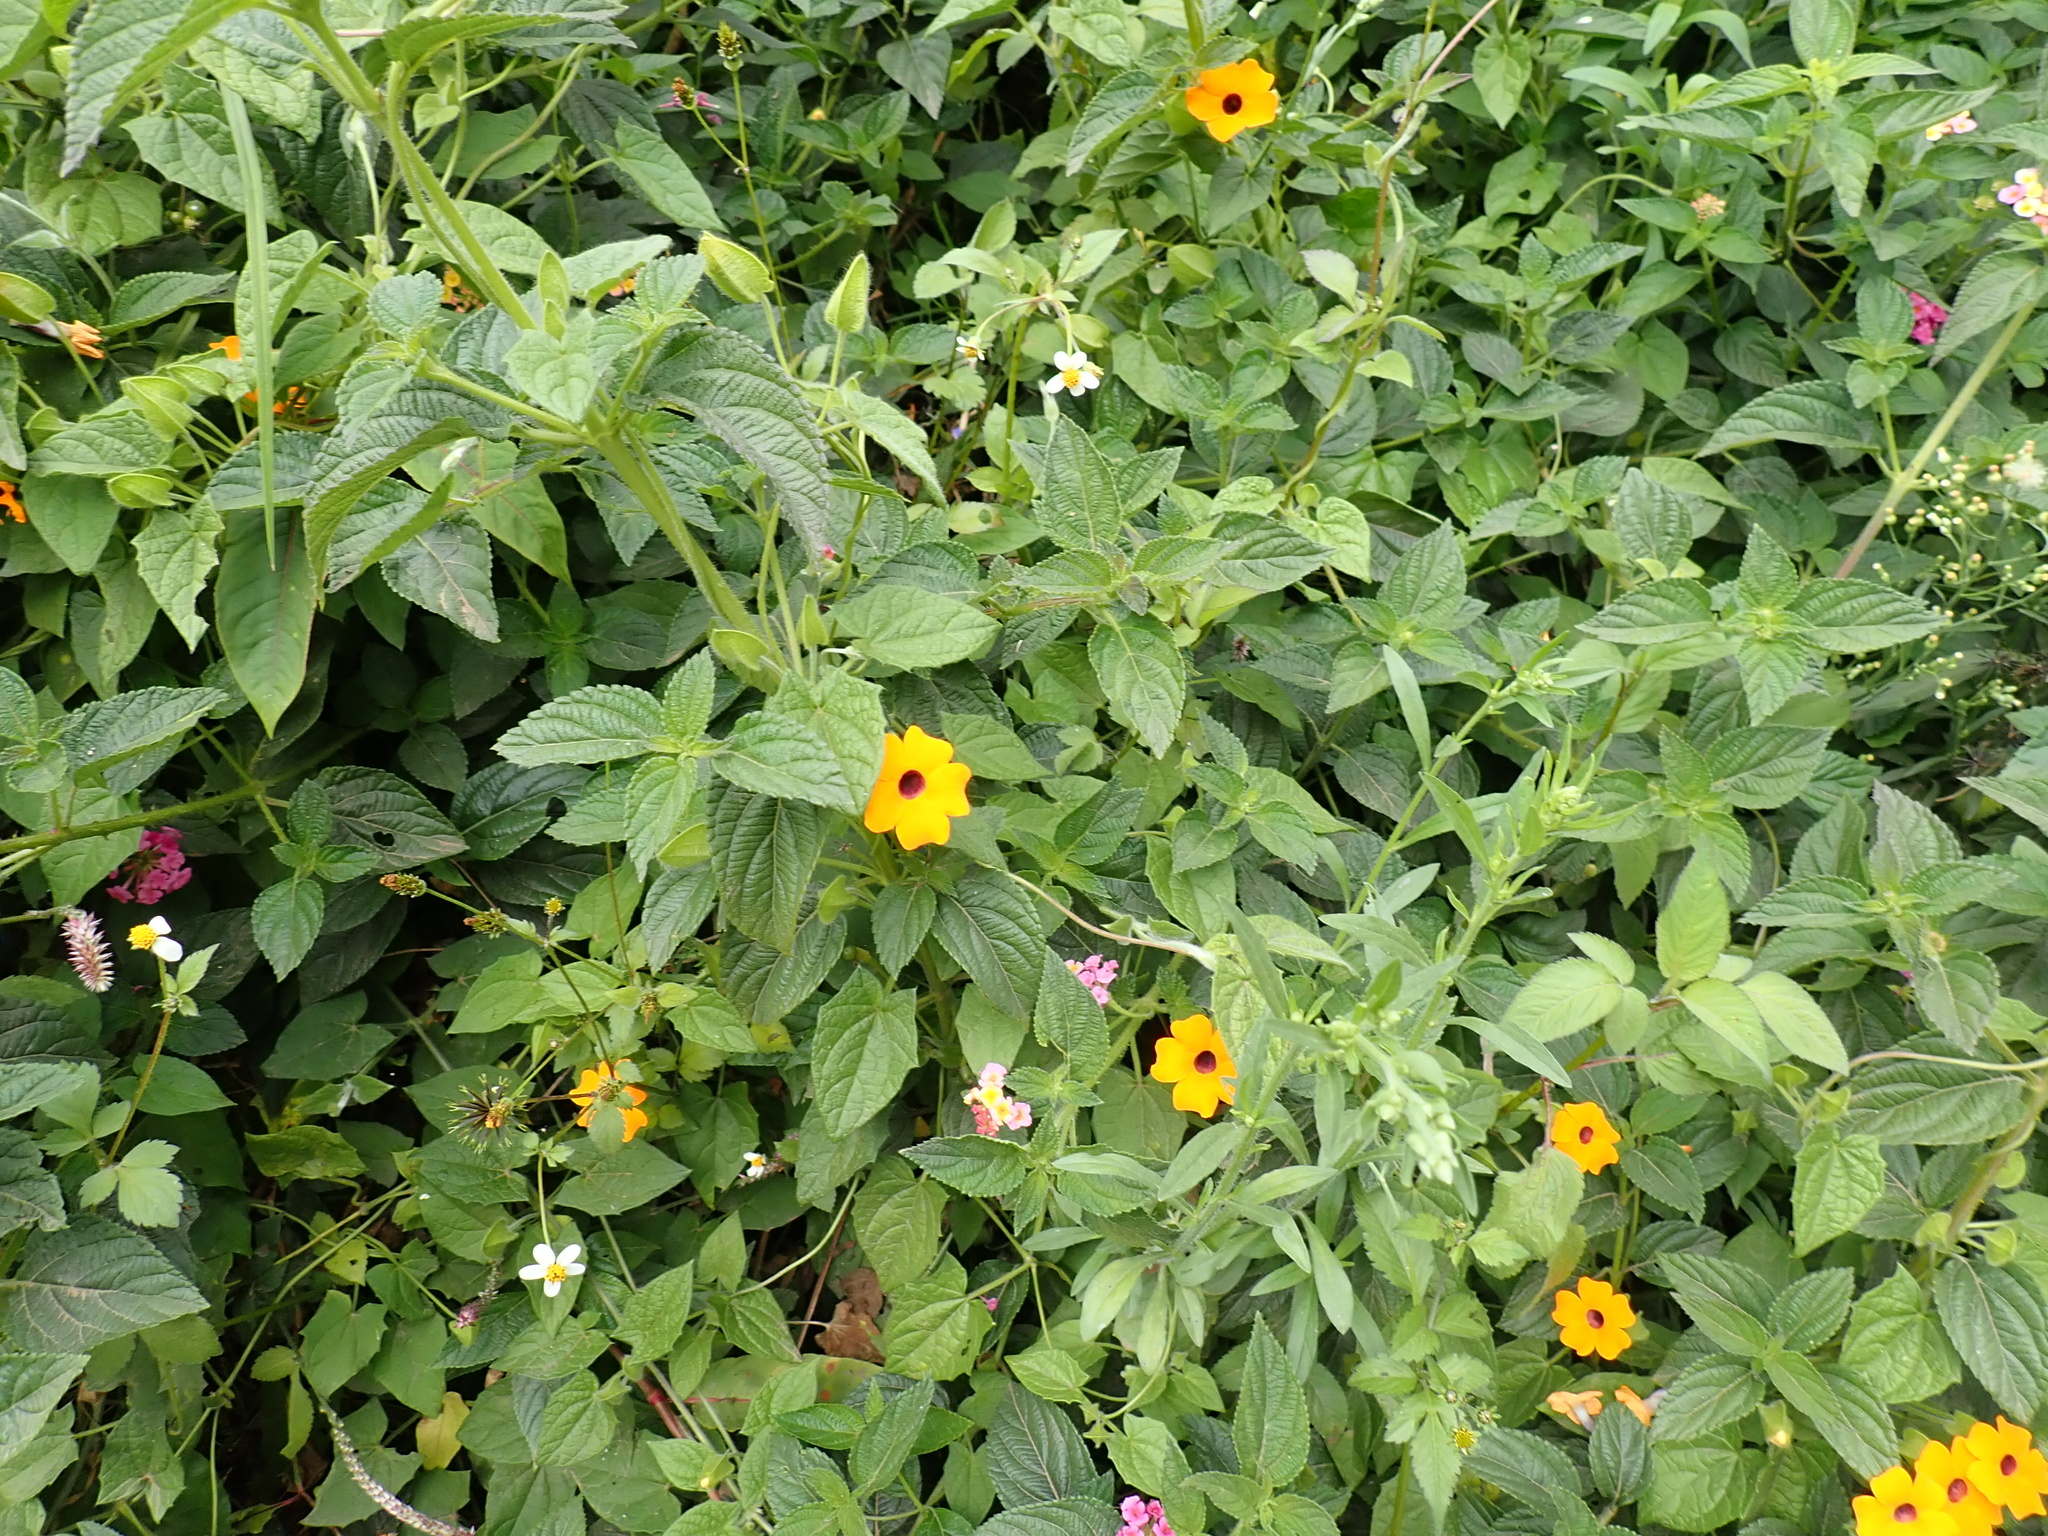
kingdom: Plantae
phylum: Tracheophyta
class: Magnoliopsida
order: Lamiales
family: Acanthaceae
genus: Thunbergia
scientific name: Thunbergia alata
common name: Blackeyed susan vine
